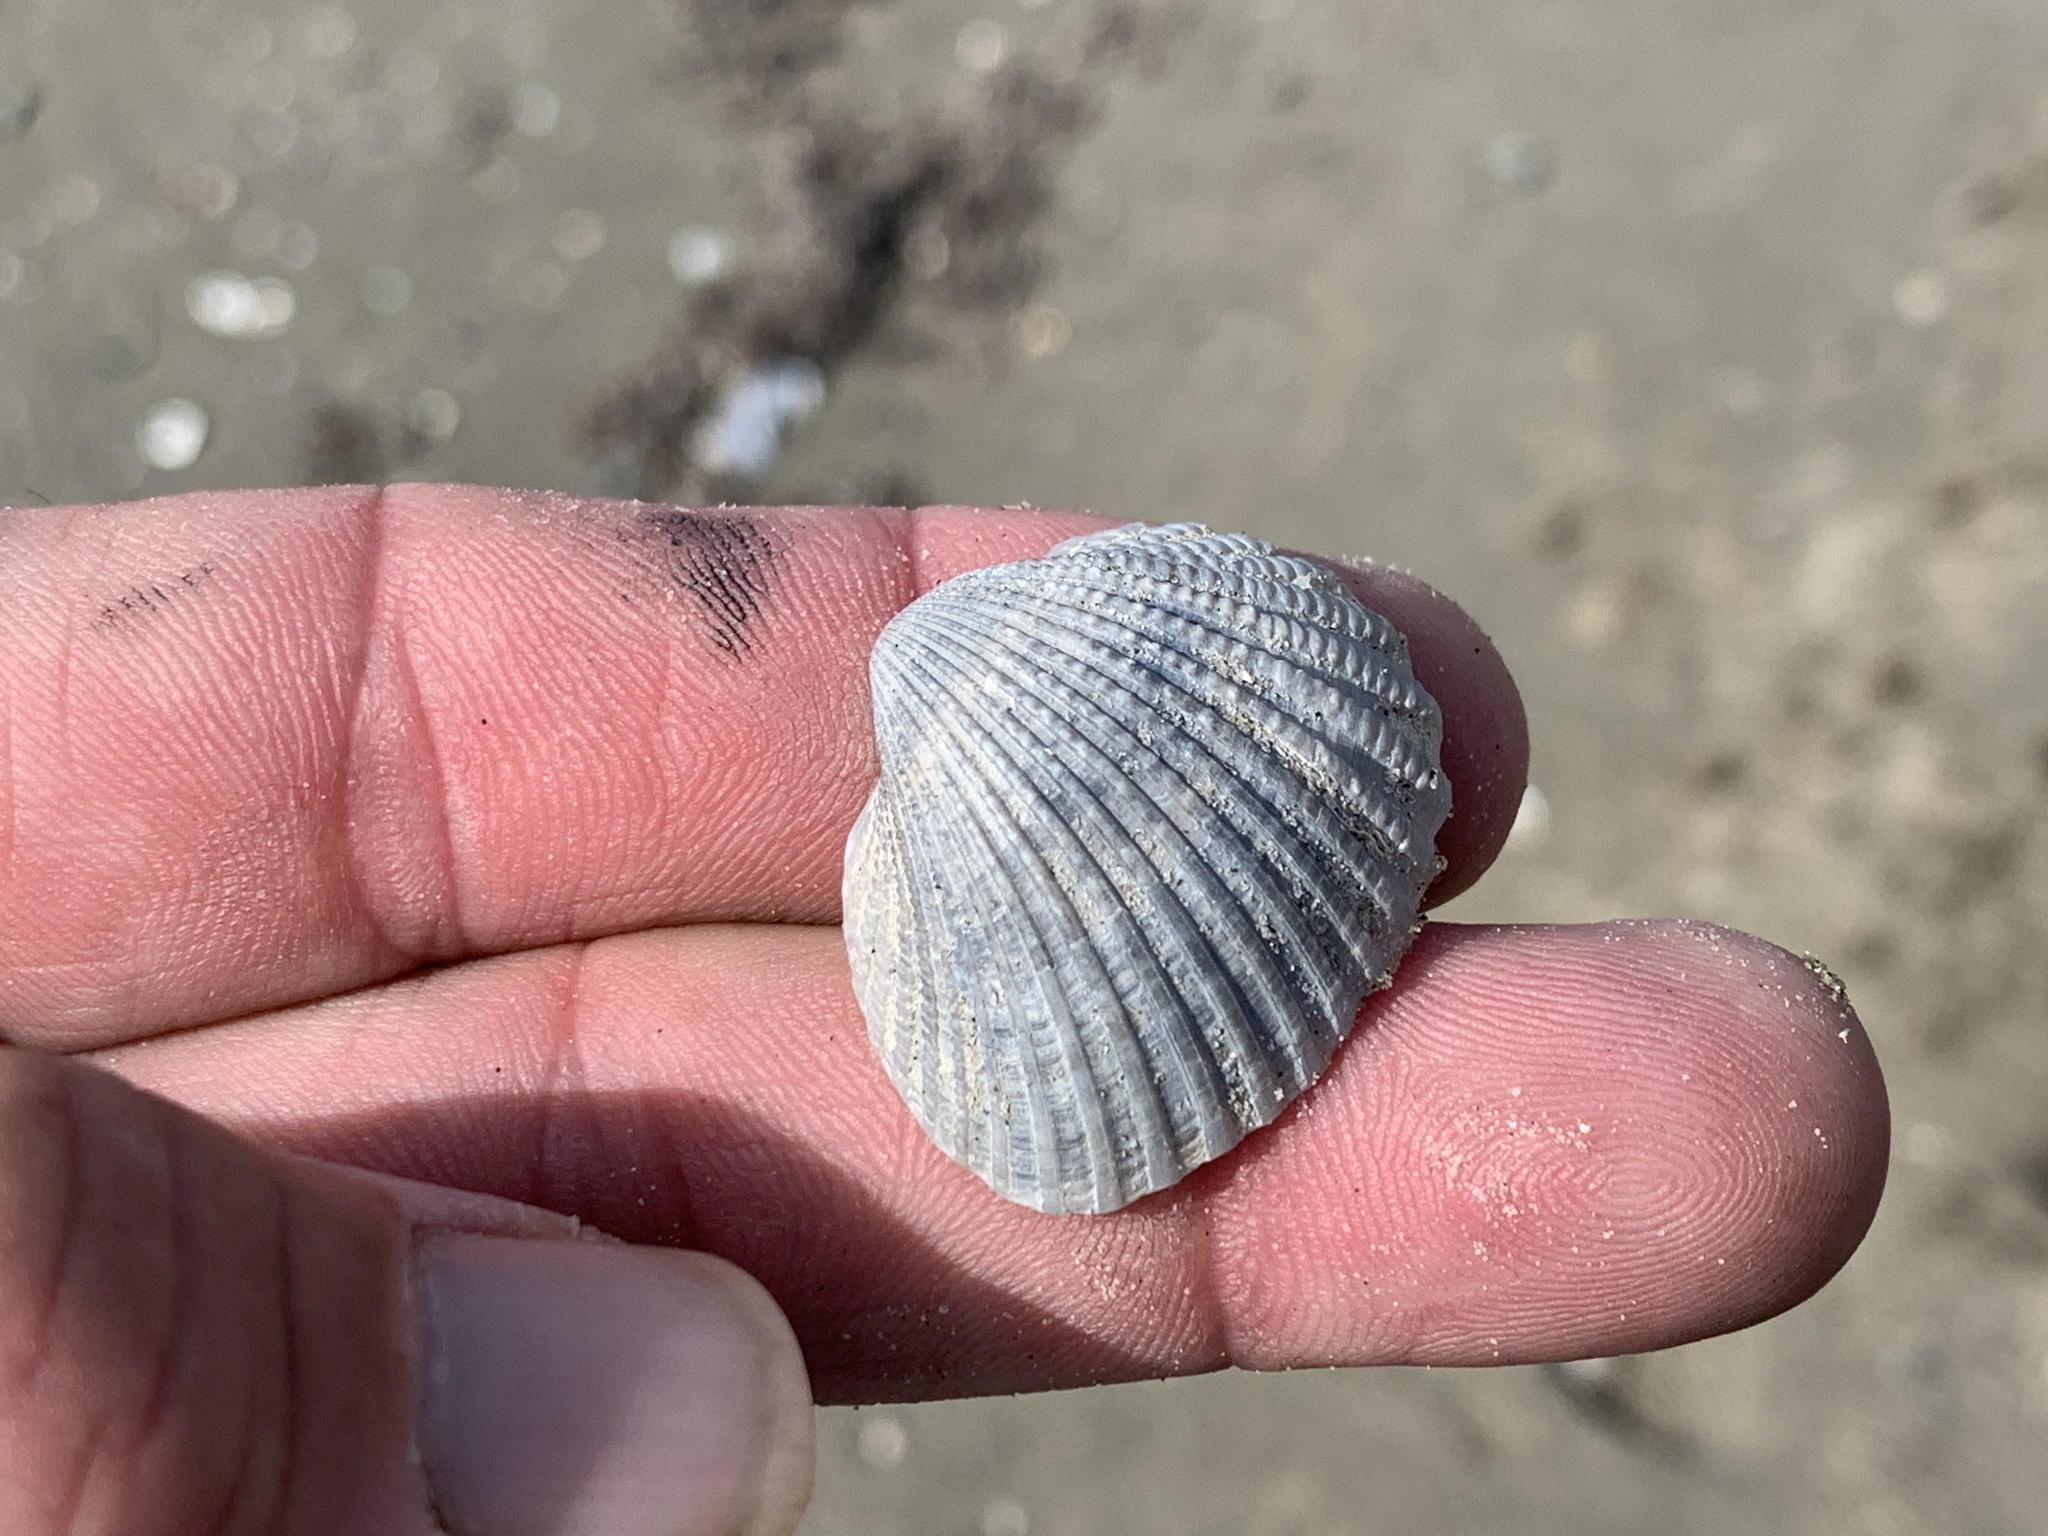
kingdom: Animalia
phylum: Mollusca
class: Bivalvia
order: Arcida
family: Arcidae
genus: Anadara
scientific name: Anadara brasiliana
